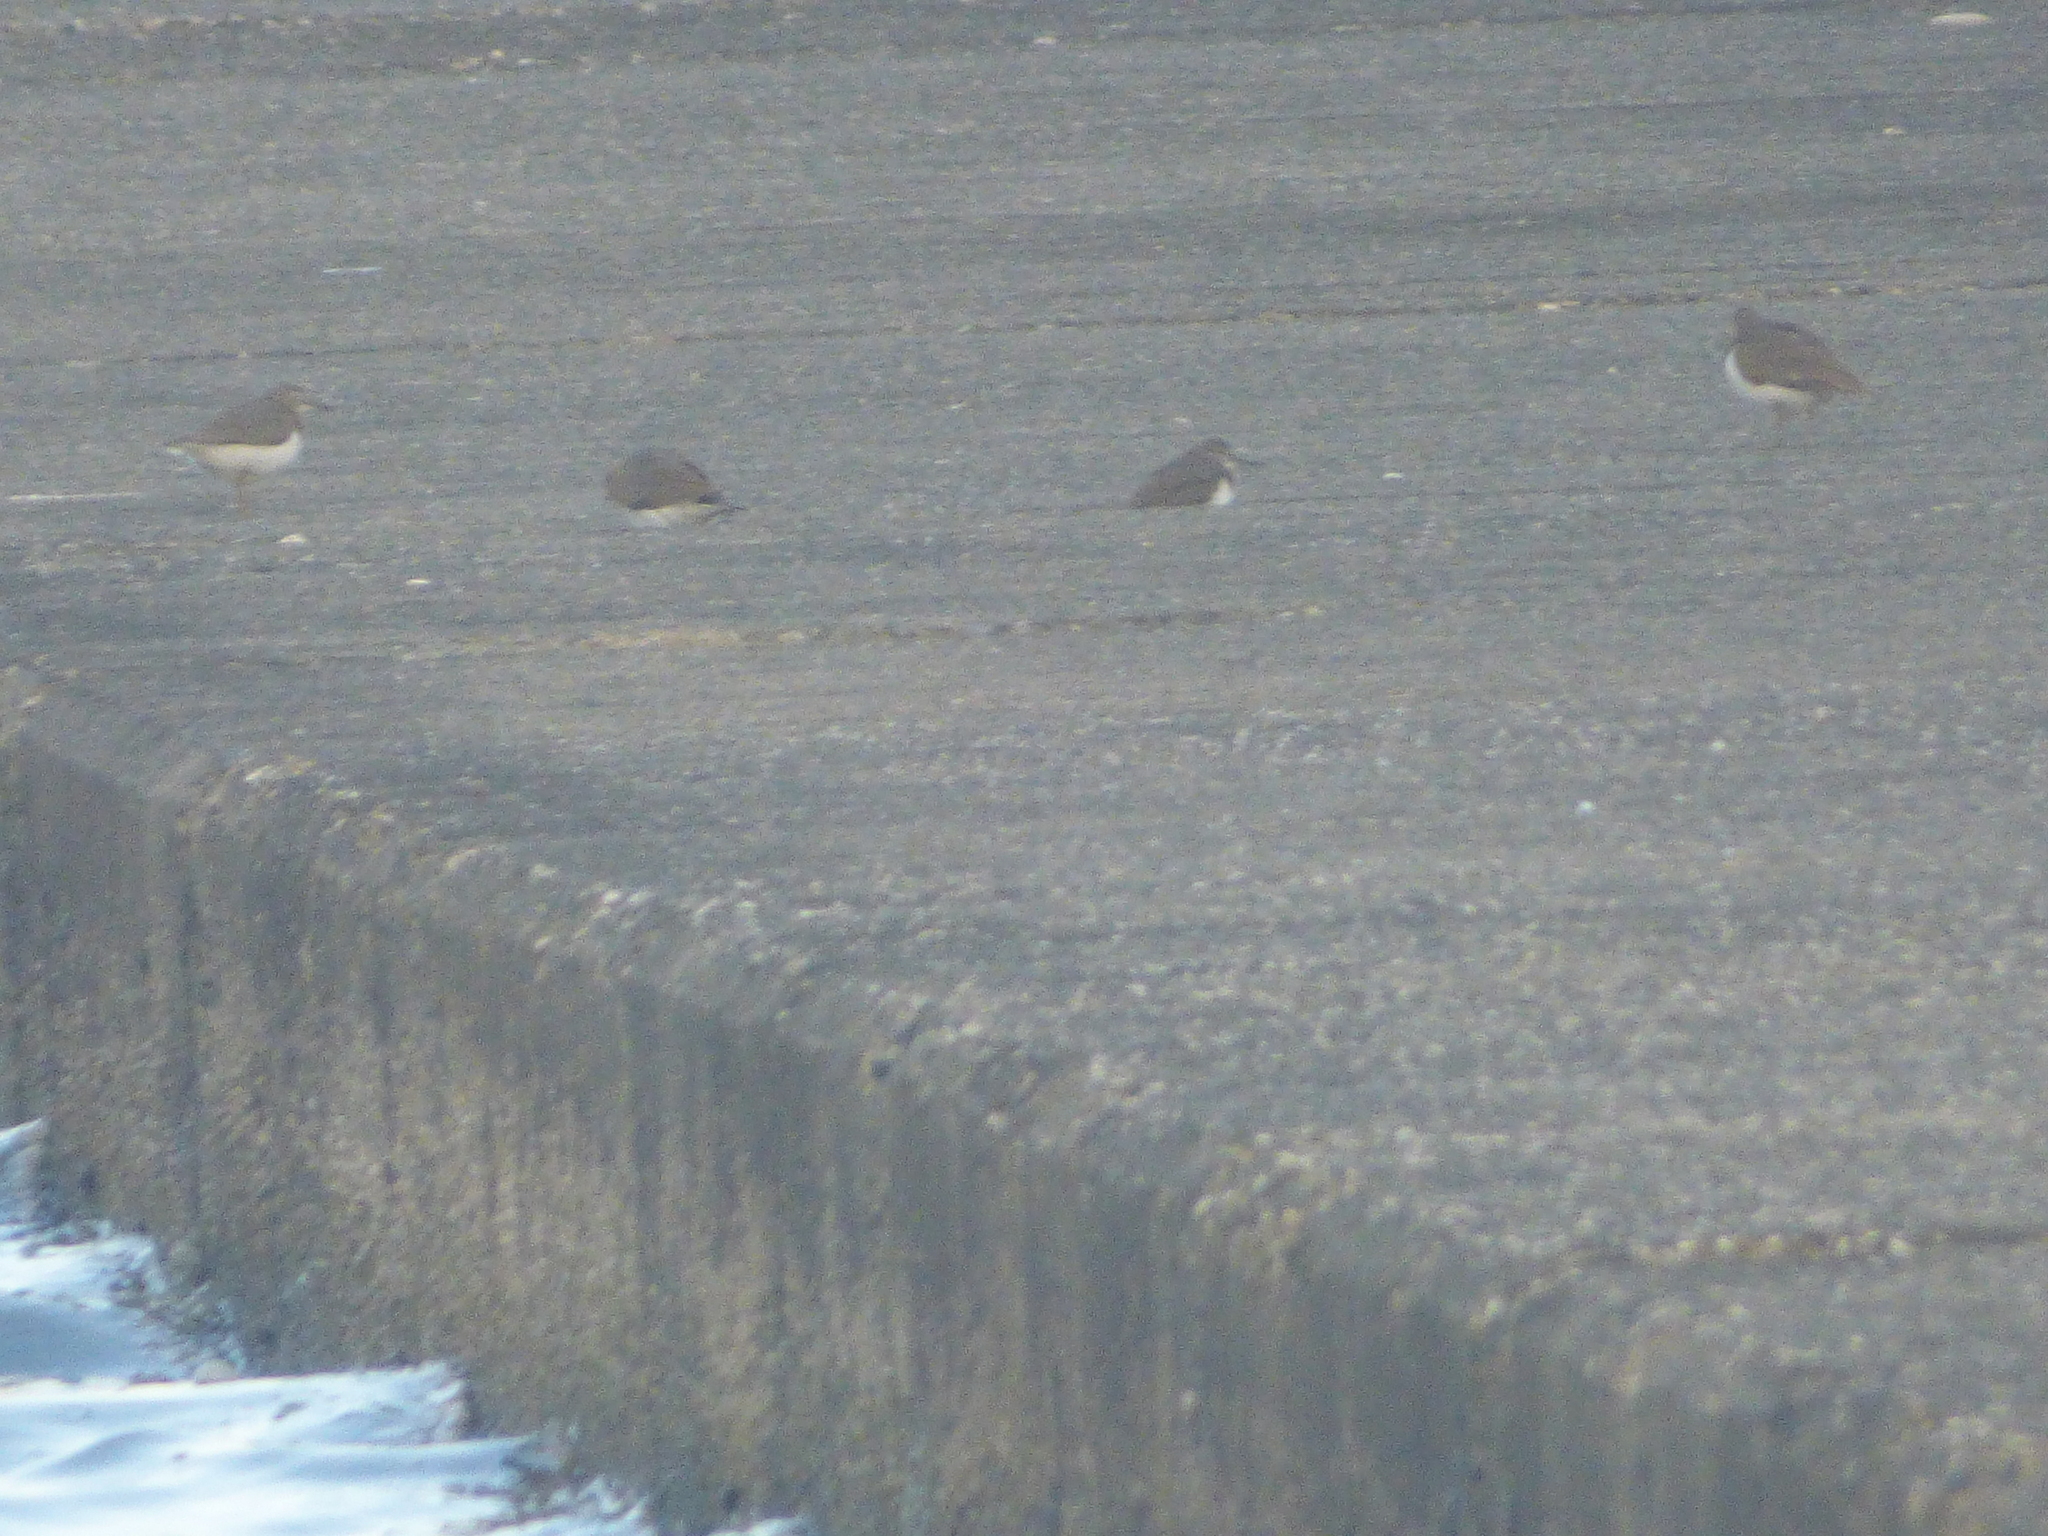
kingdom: Animalia
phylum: Chordata
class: Aves
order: Charadriiformes
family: Scolopacidae
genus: Actitis
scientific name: Actitis hypoleucos
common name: Common sandpiper
